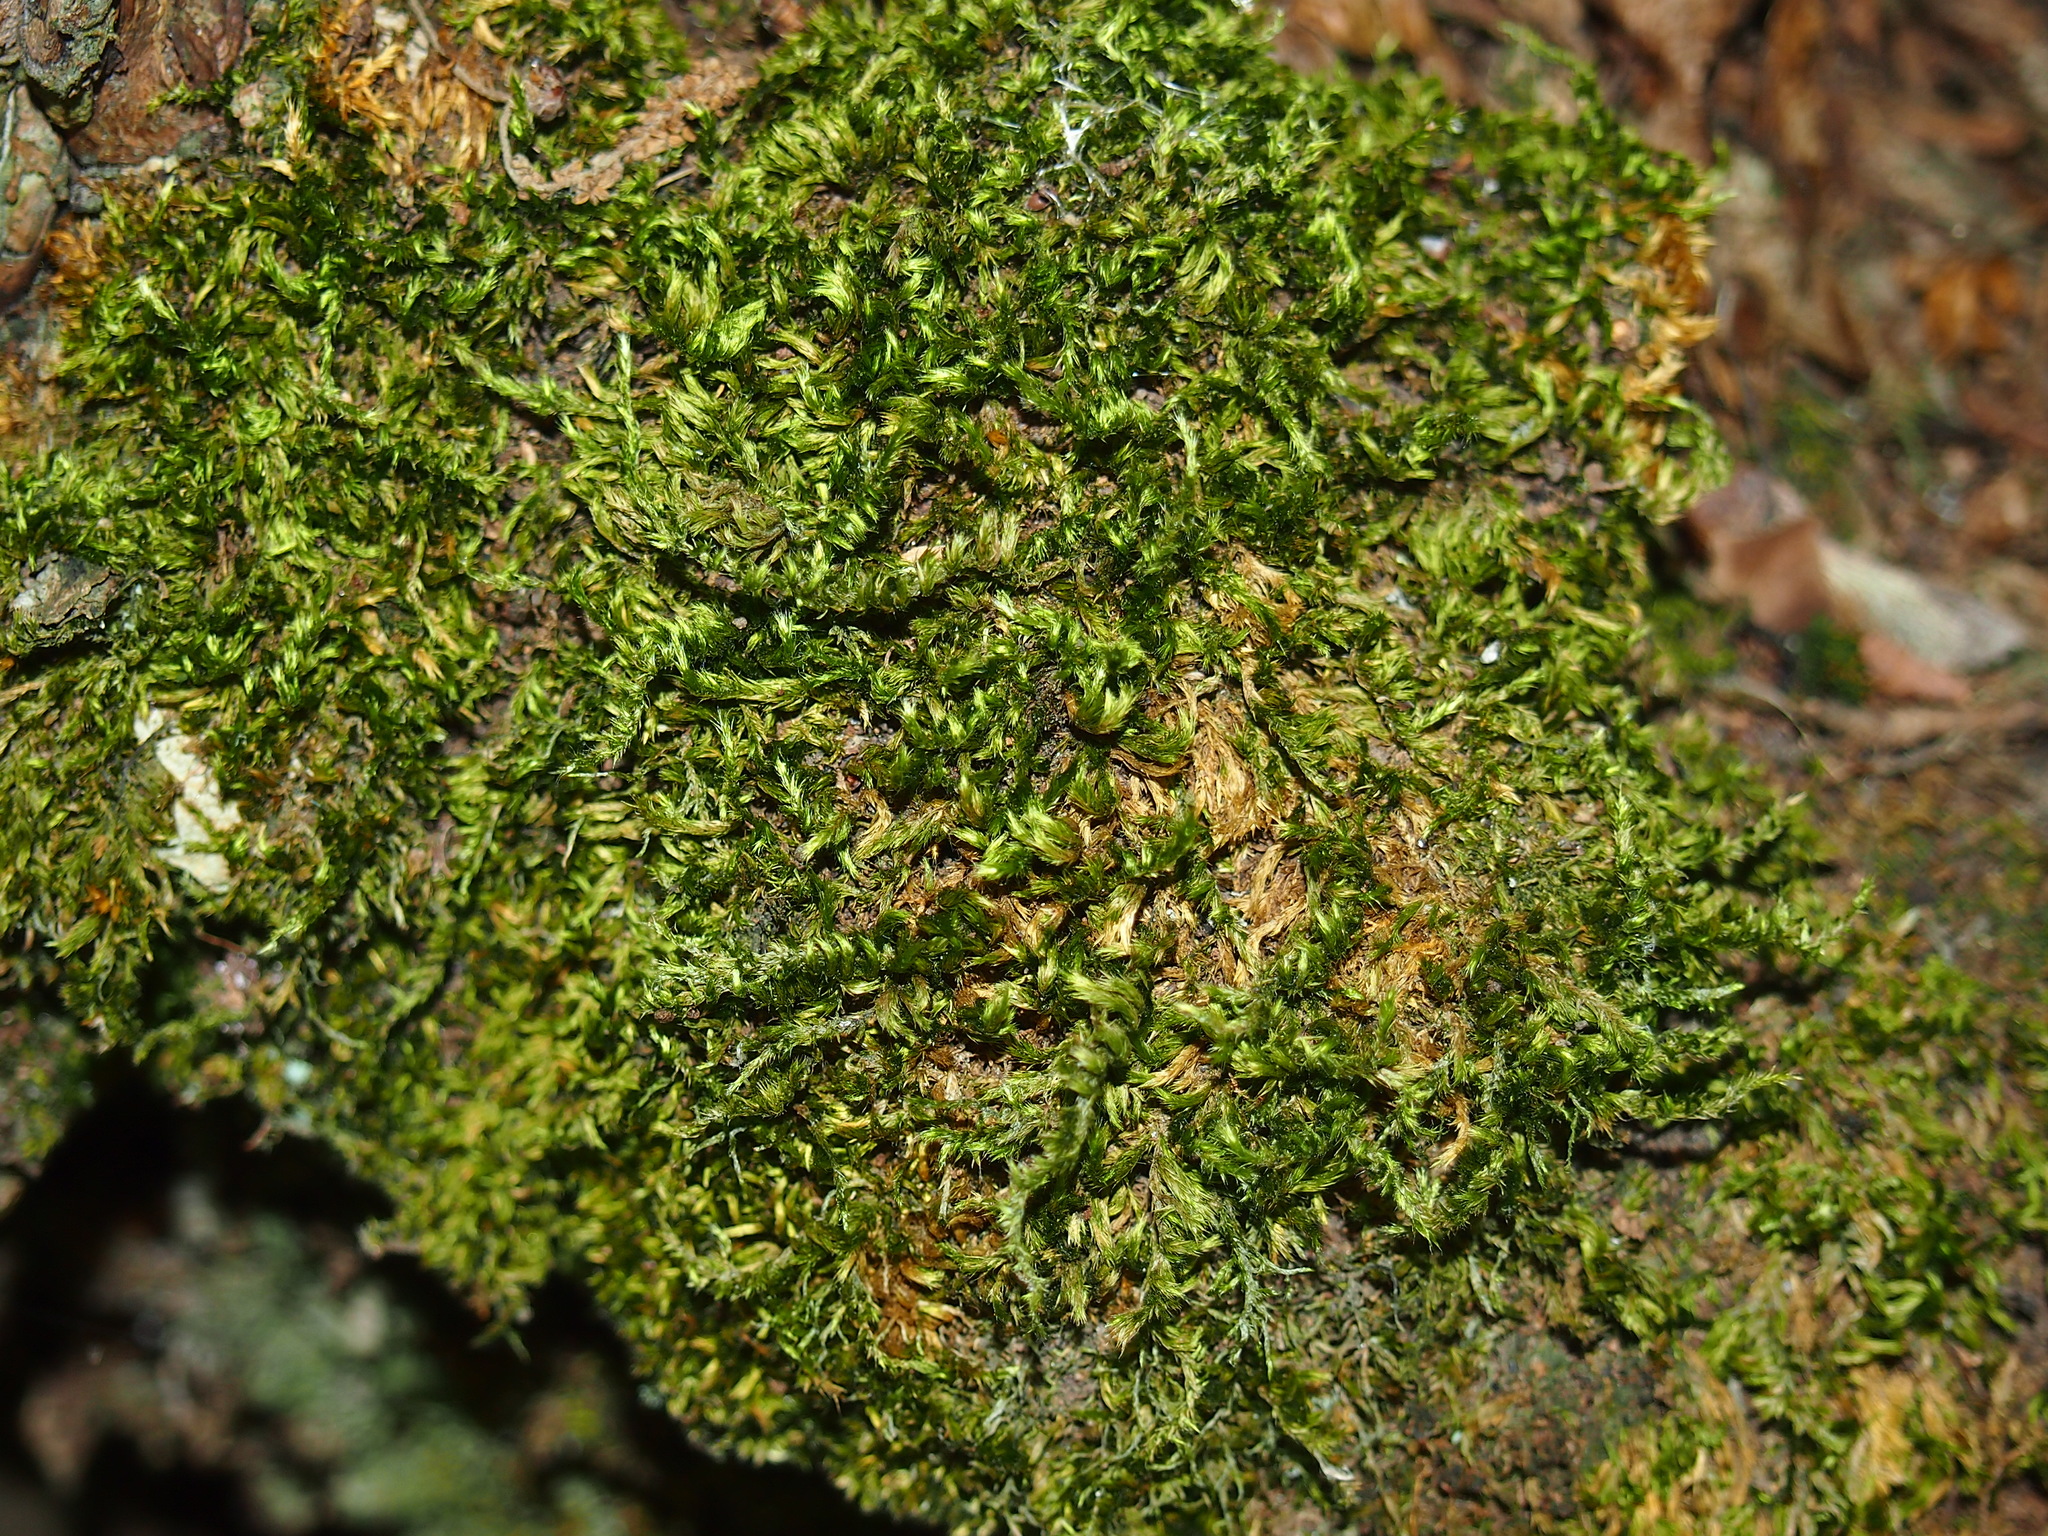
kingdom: Plantae
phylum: Bryophyta
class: Bryopsida
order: Hypnales
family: Brachytheciaceae
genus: Homalothecium
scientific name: Homalothecium sericeum
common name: Silky wall feather-moss
